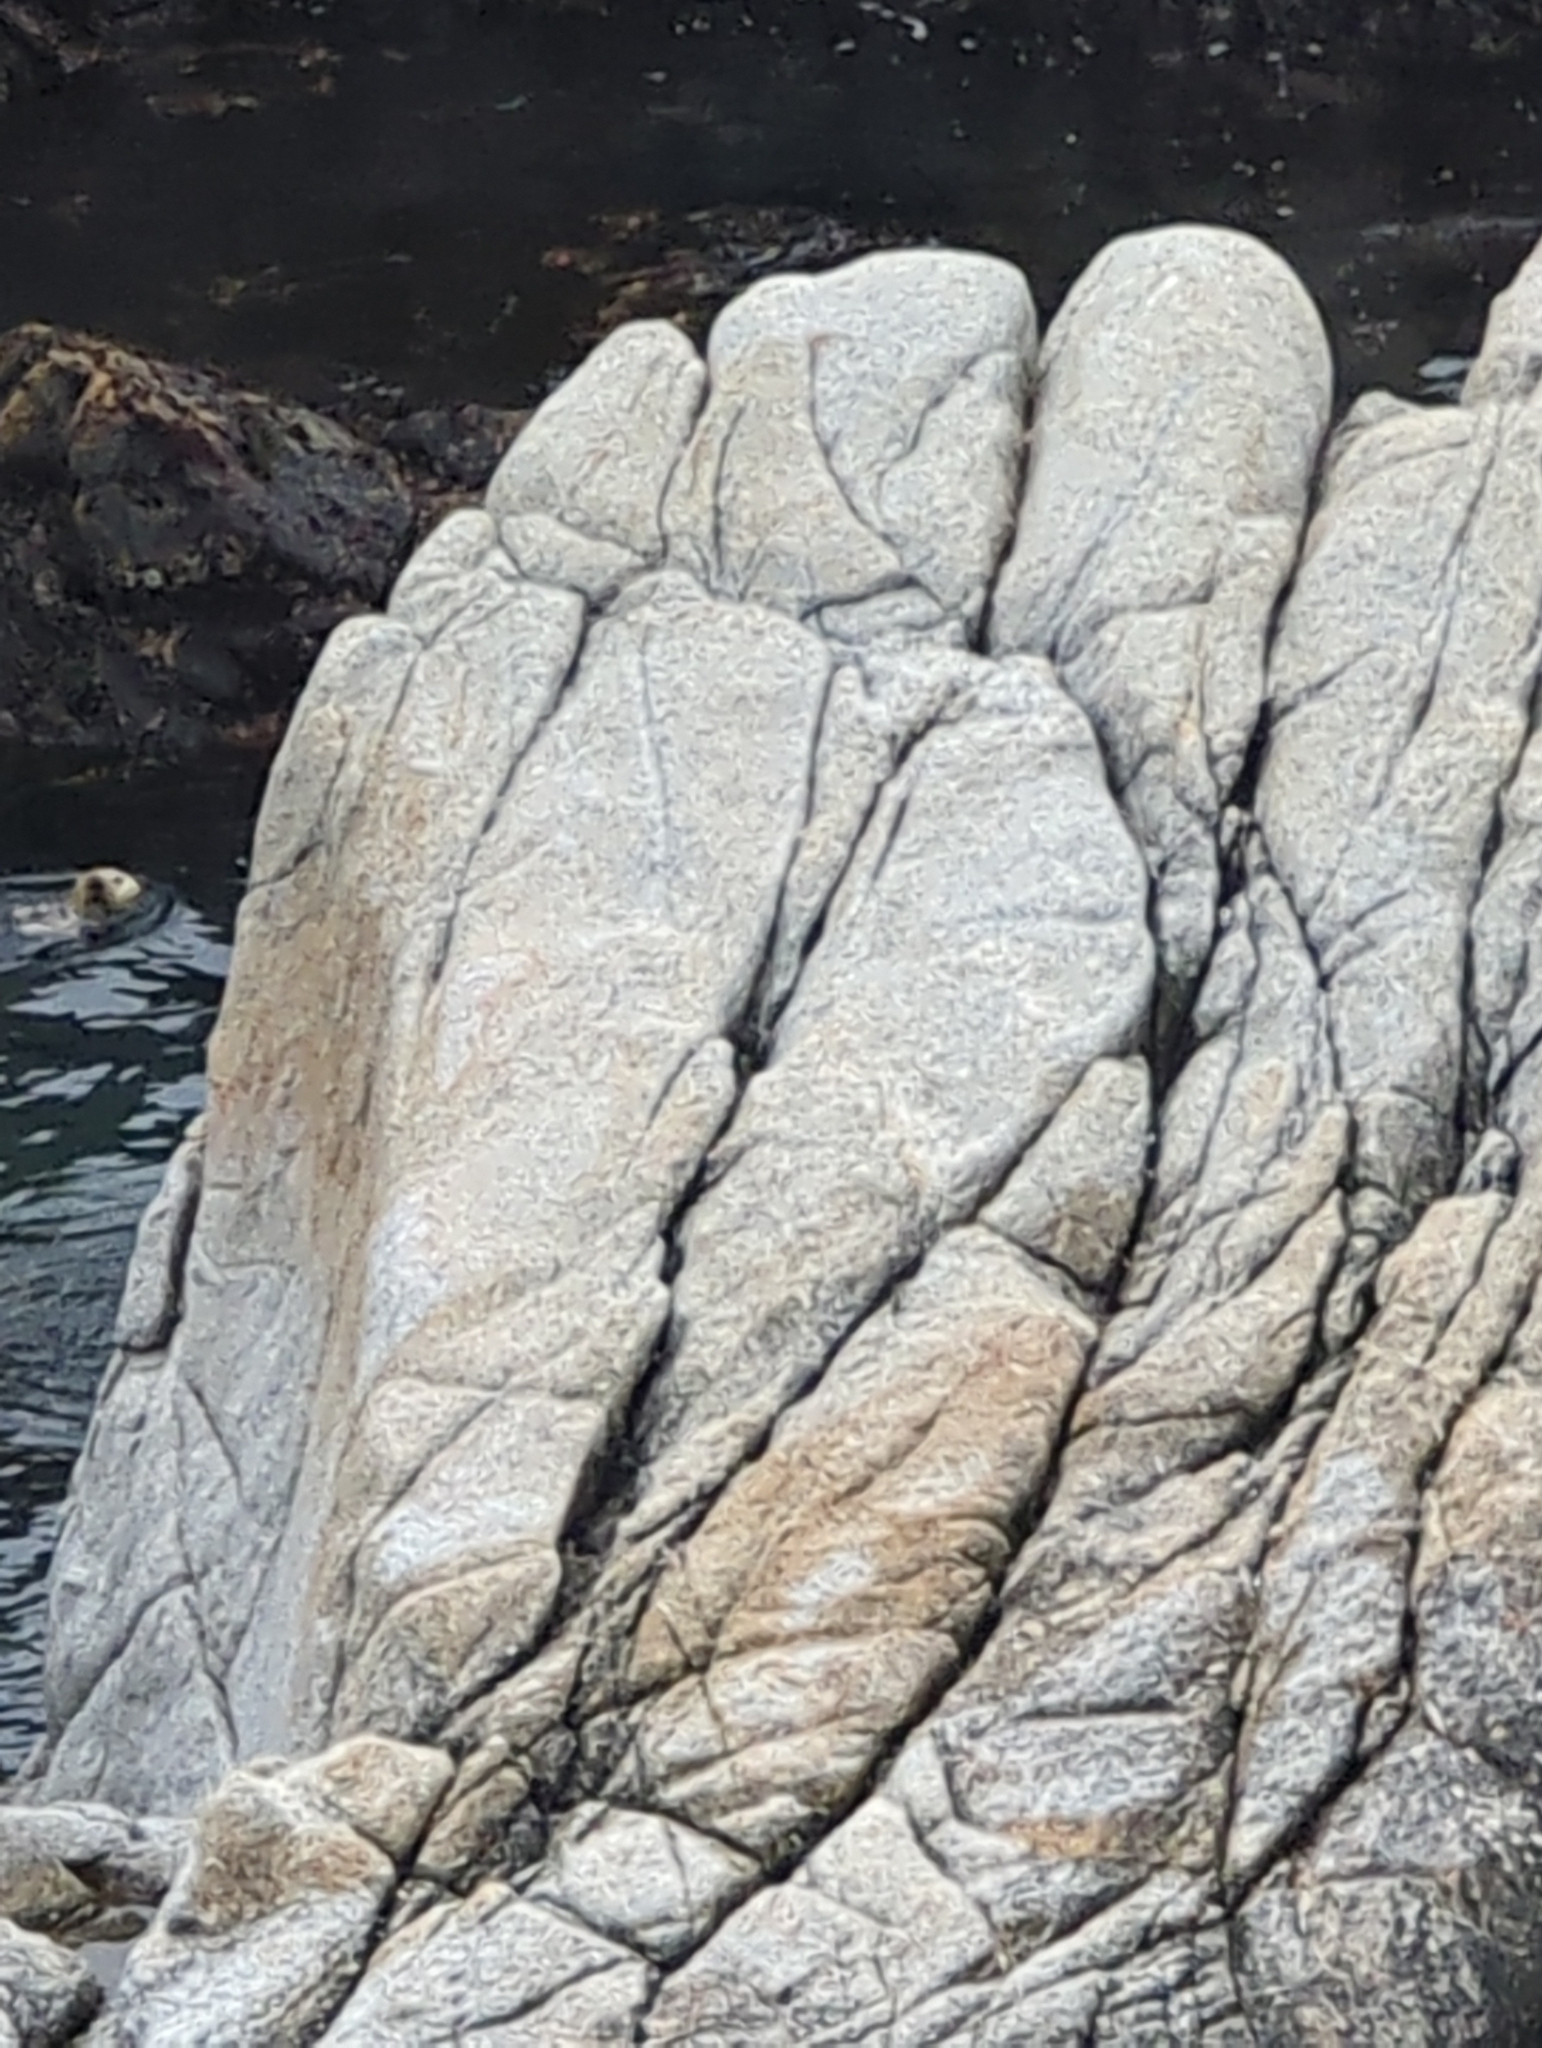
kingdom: Animalia
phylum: Chordata
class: Mammalia
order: Carnivora
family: Mustelidae
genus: Enhydra
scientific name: Enhydra lutris
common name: Sea otter
